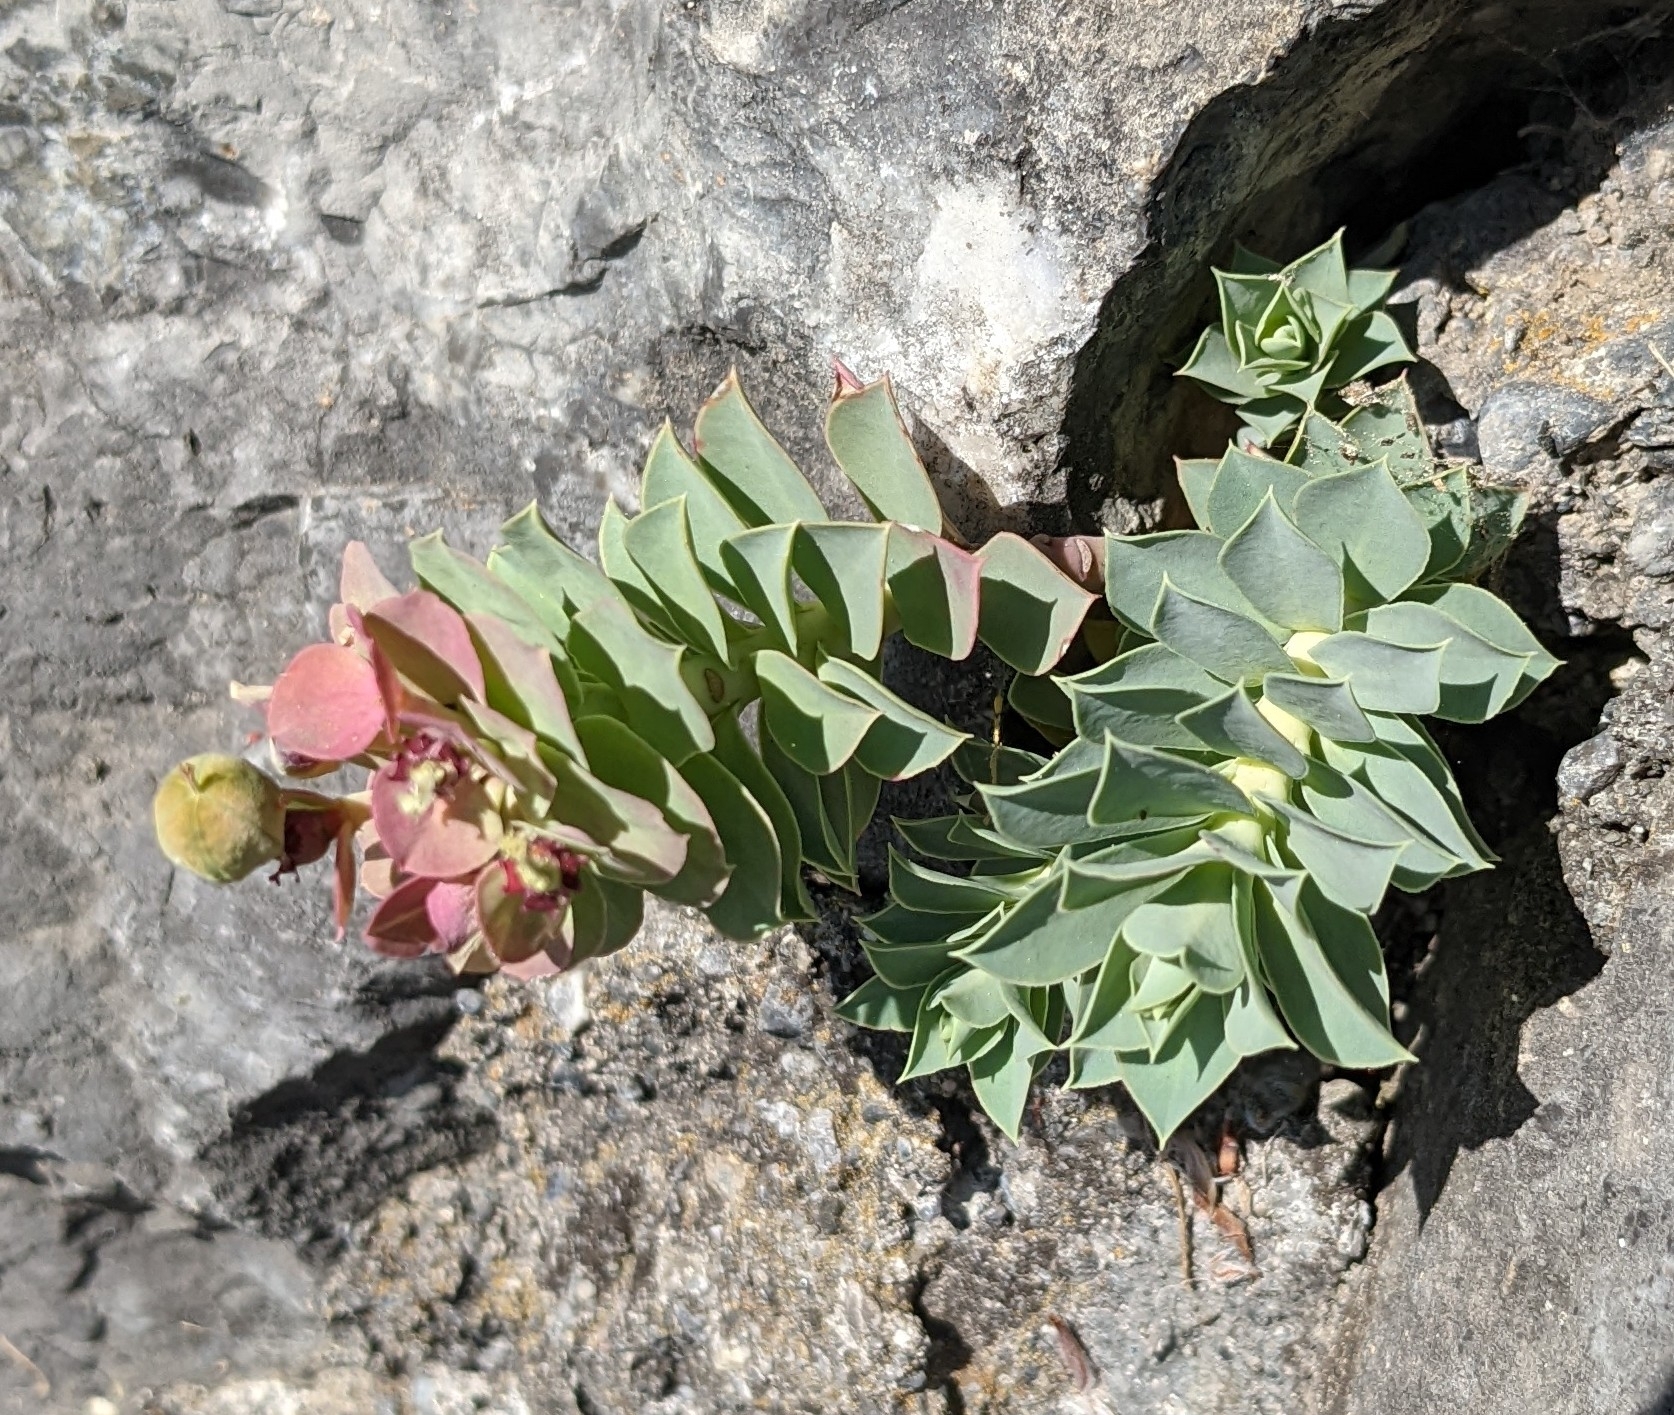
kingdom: Plantae
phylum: Tracheophyta
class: Magnoliopsida
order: Malpighiales
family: Euphorbiaceae
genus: Euphorbia
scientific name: Euphorbia myrsinites
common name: Myrtle spurge
